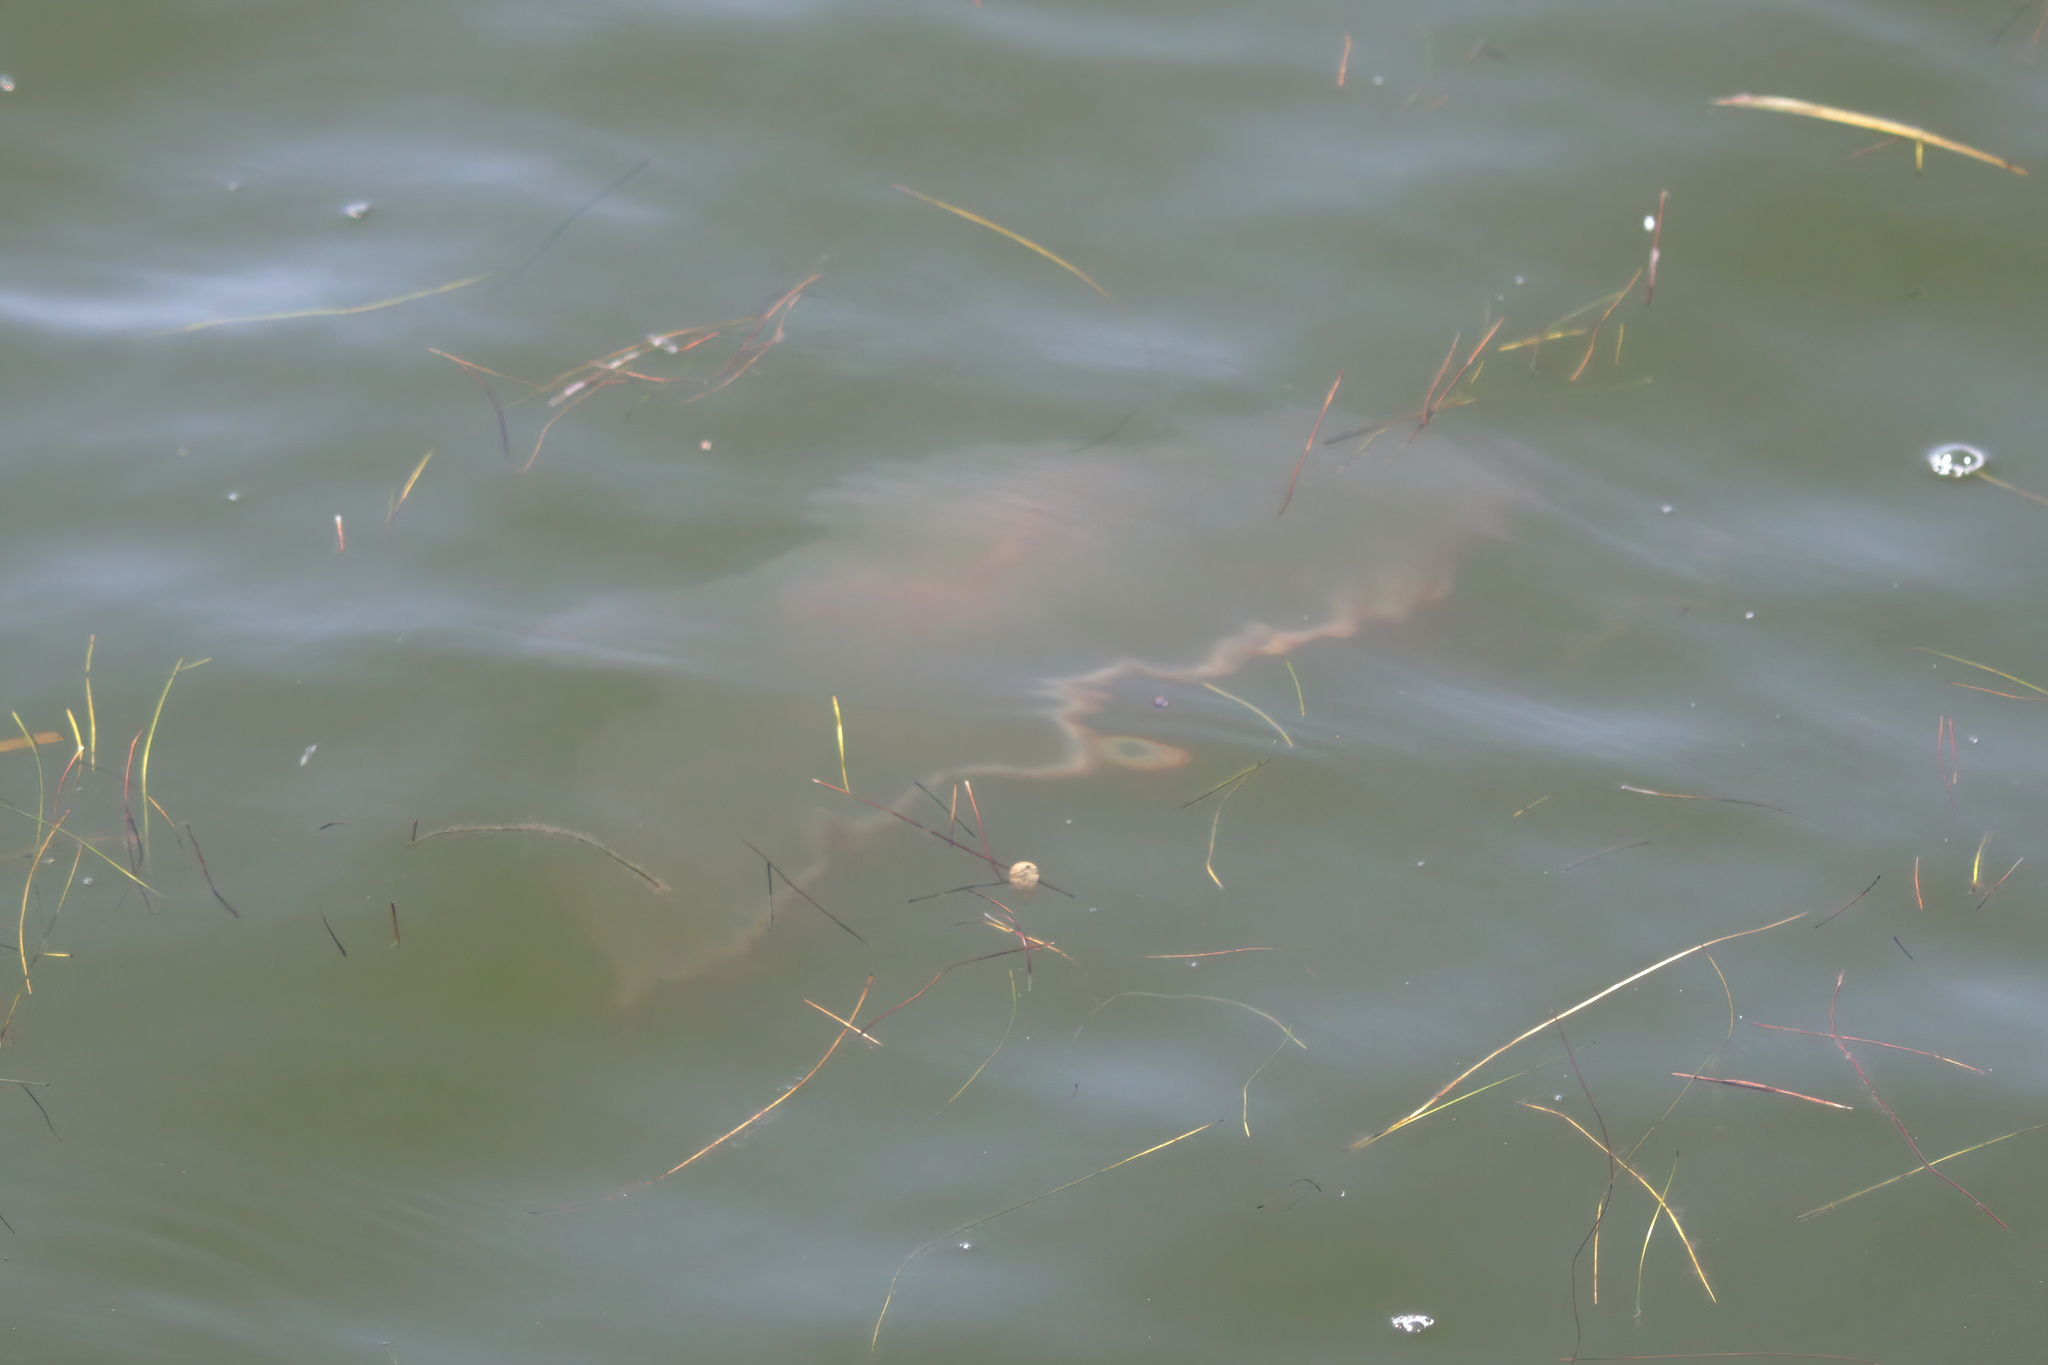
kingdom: Animalia
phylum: Cnidaria
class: Scyphozoa
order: Semaeostomeae
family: Ulmaridae
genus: Aurelia
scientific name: Aurelia marginalis
